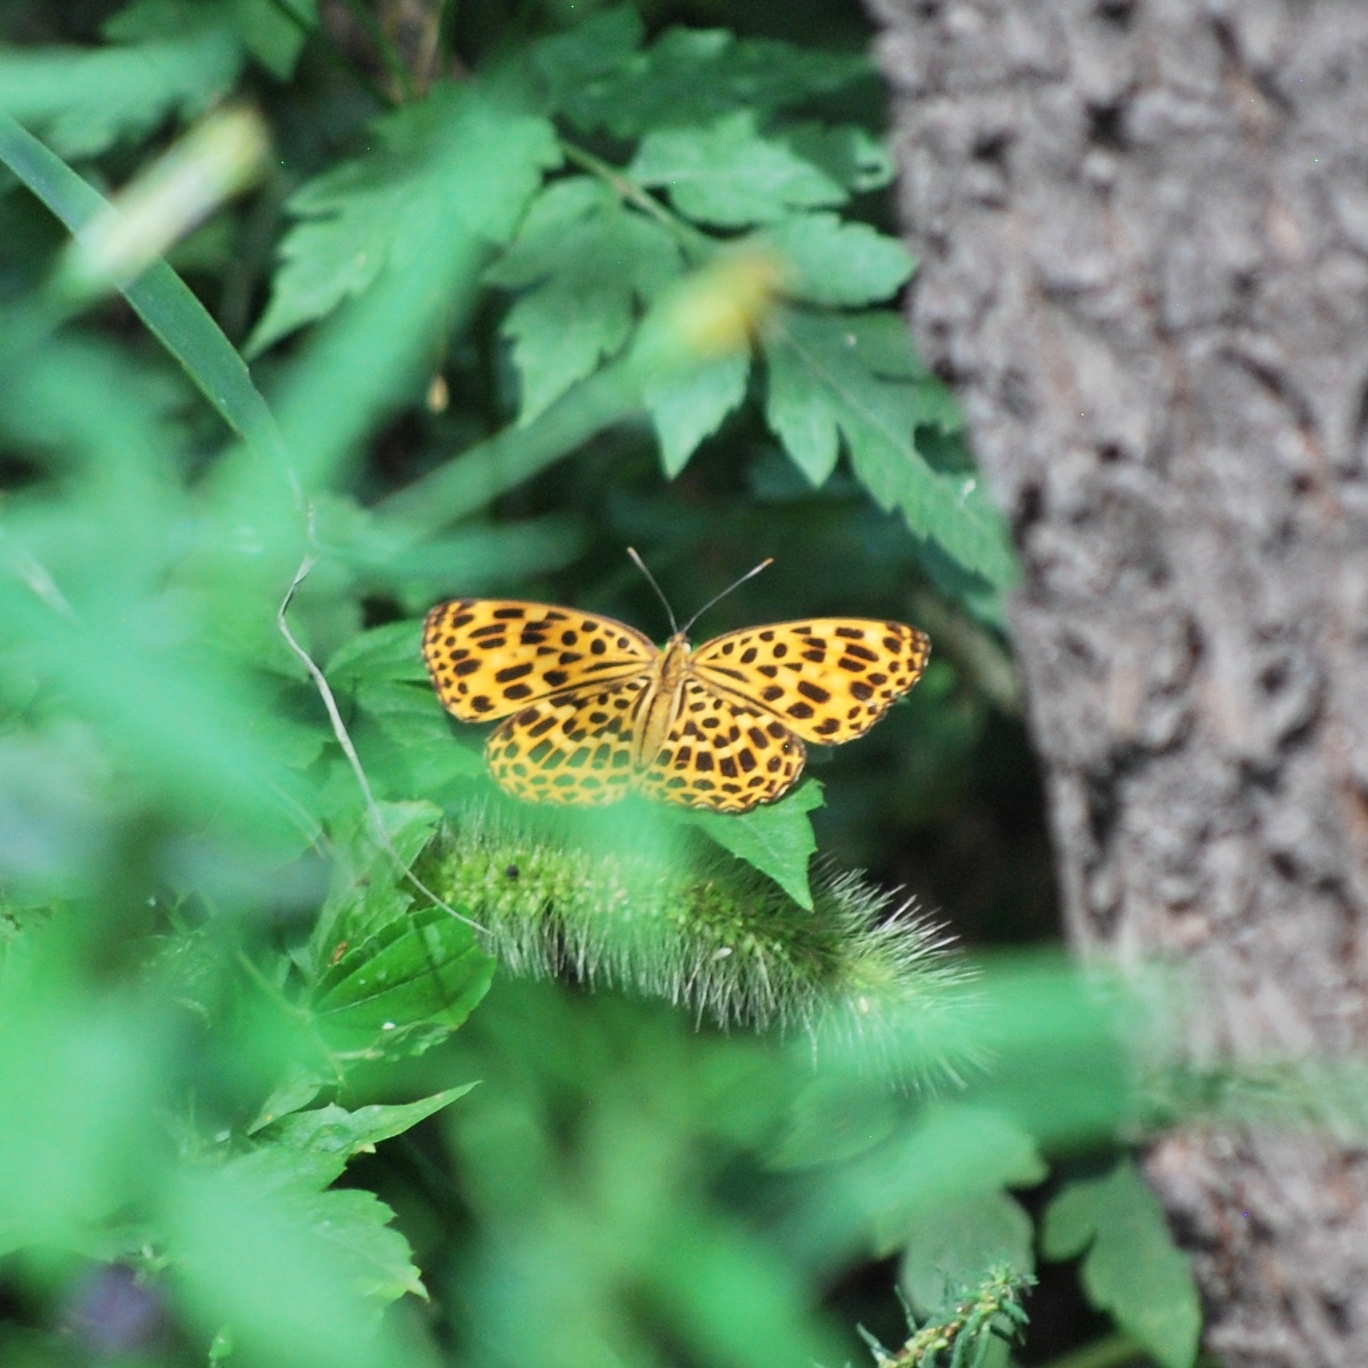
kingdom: Animalia
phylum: Arthropoda
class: Insecta
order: Lepidoptera
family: Nymphalidae
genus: Timelaea
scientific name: Timelaea maculata
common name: Spotted leopard butterfly
